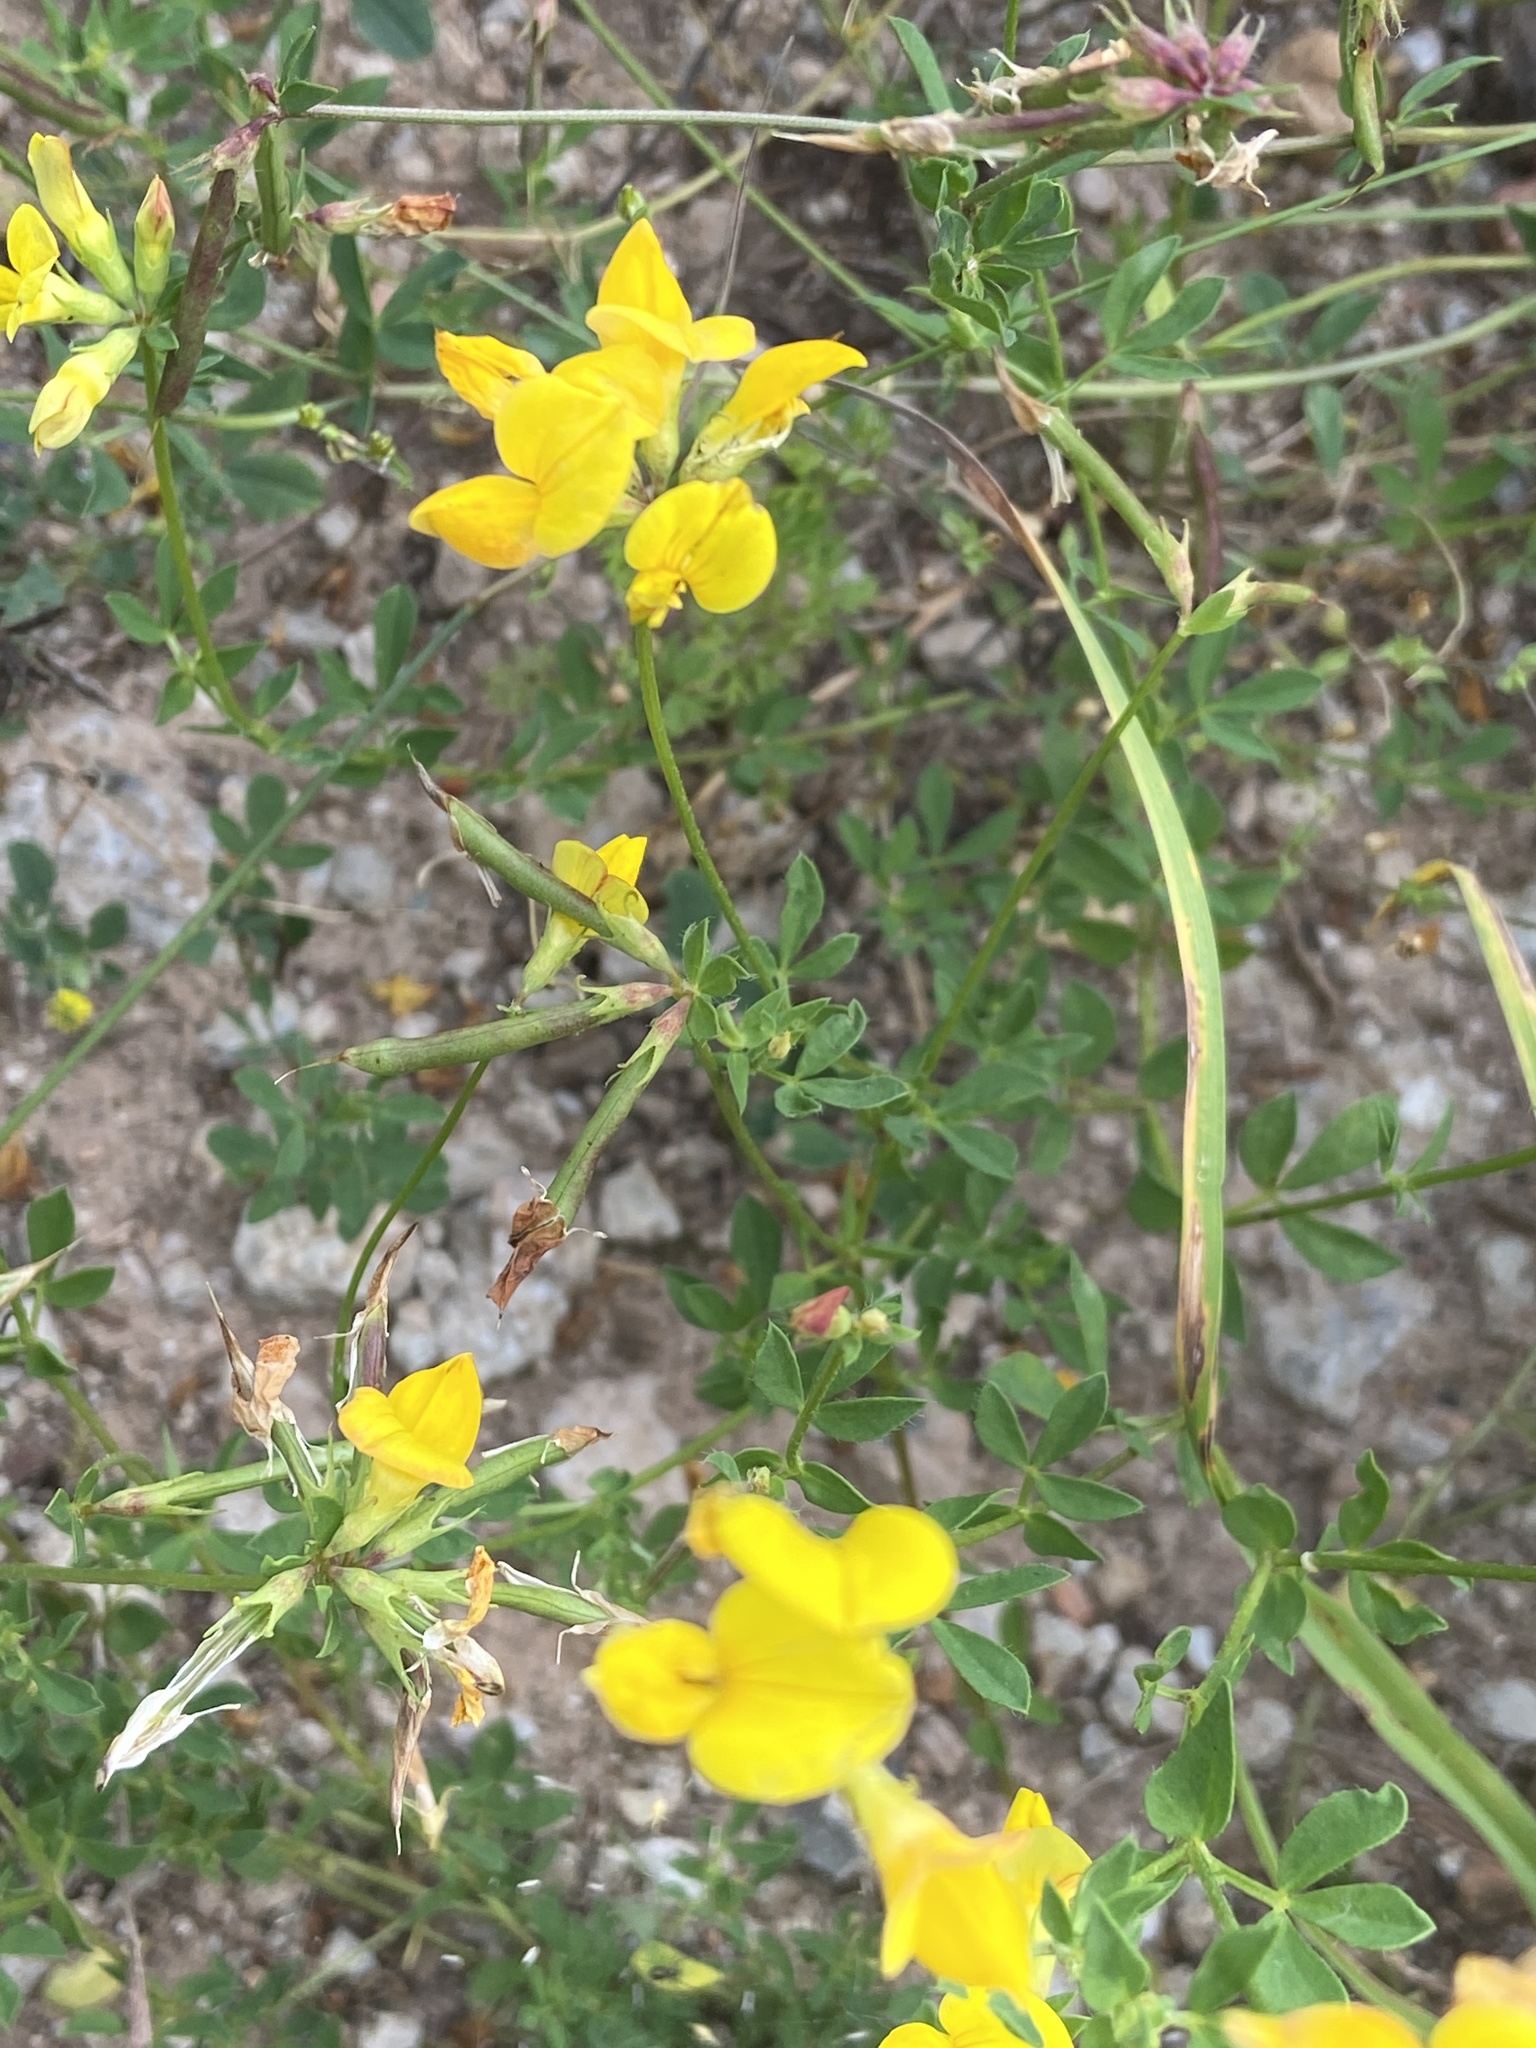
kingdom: Plantae
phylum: Tracheophyta
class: Magnoliopsida
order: Fabales
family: Fabaceae
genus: Lotus
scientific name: Lotus corniculatus
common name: Common bird's-foot-trefoil
